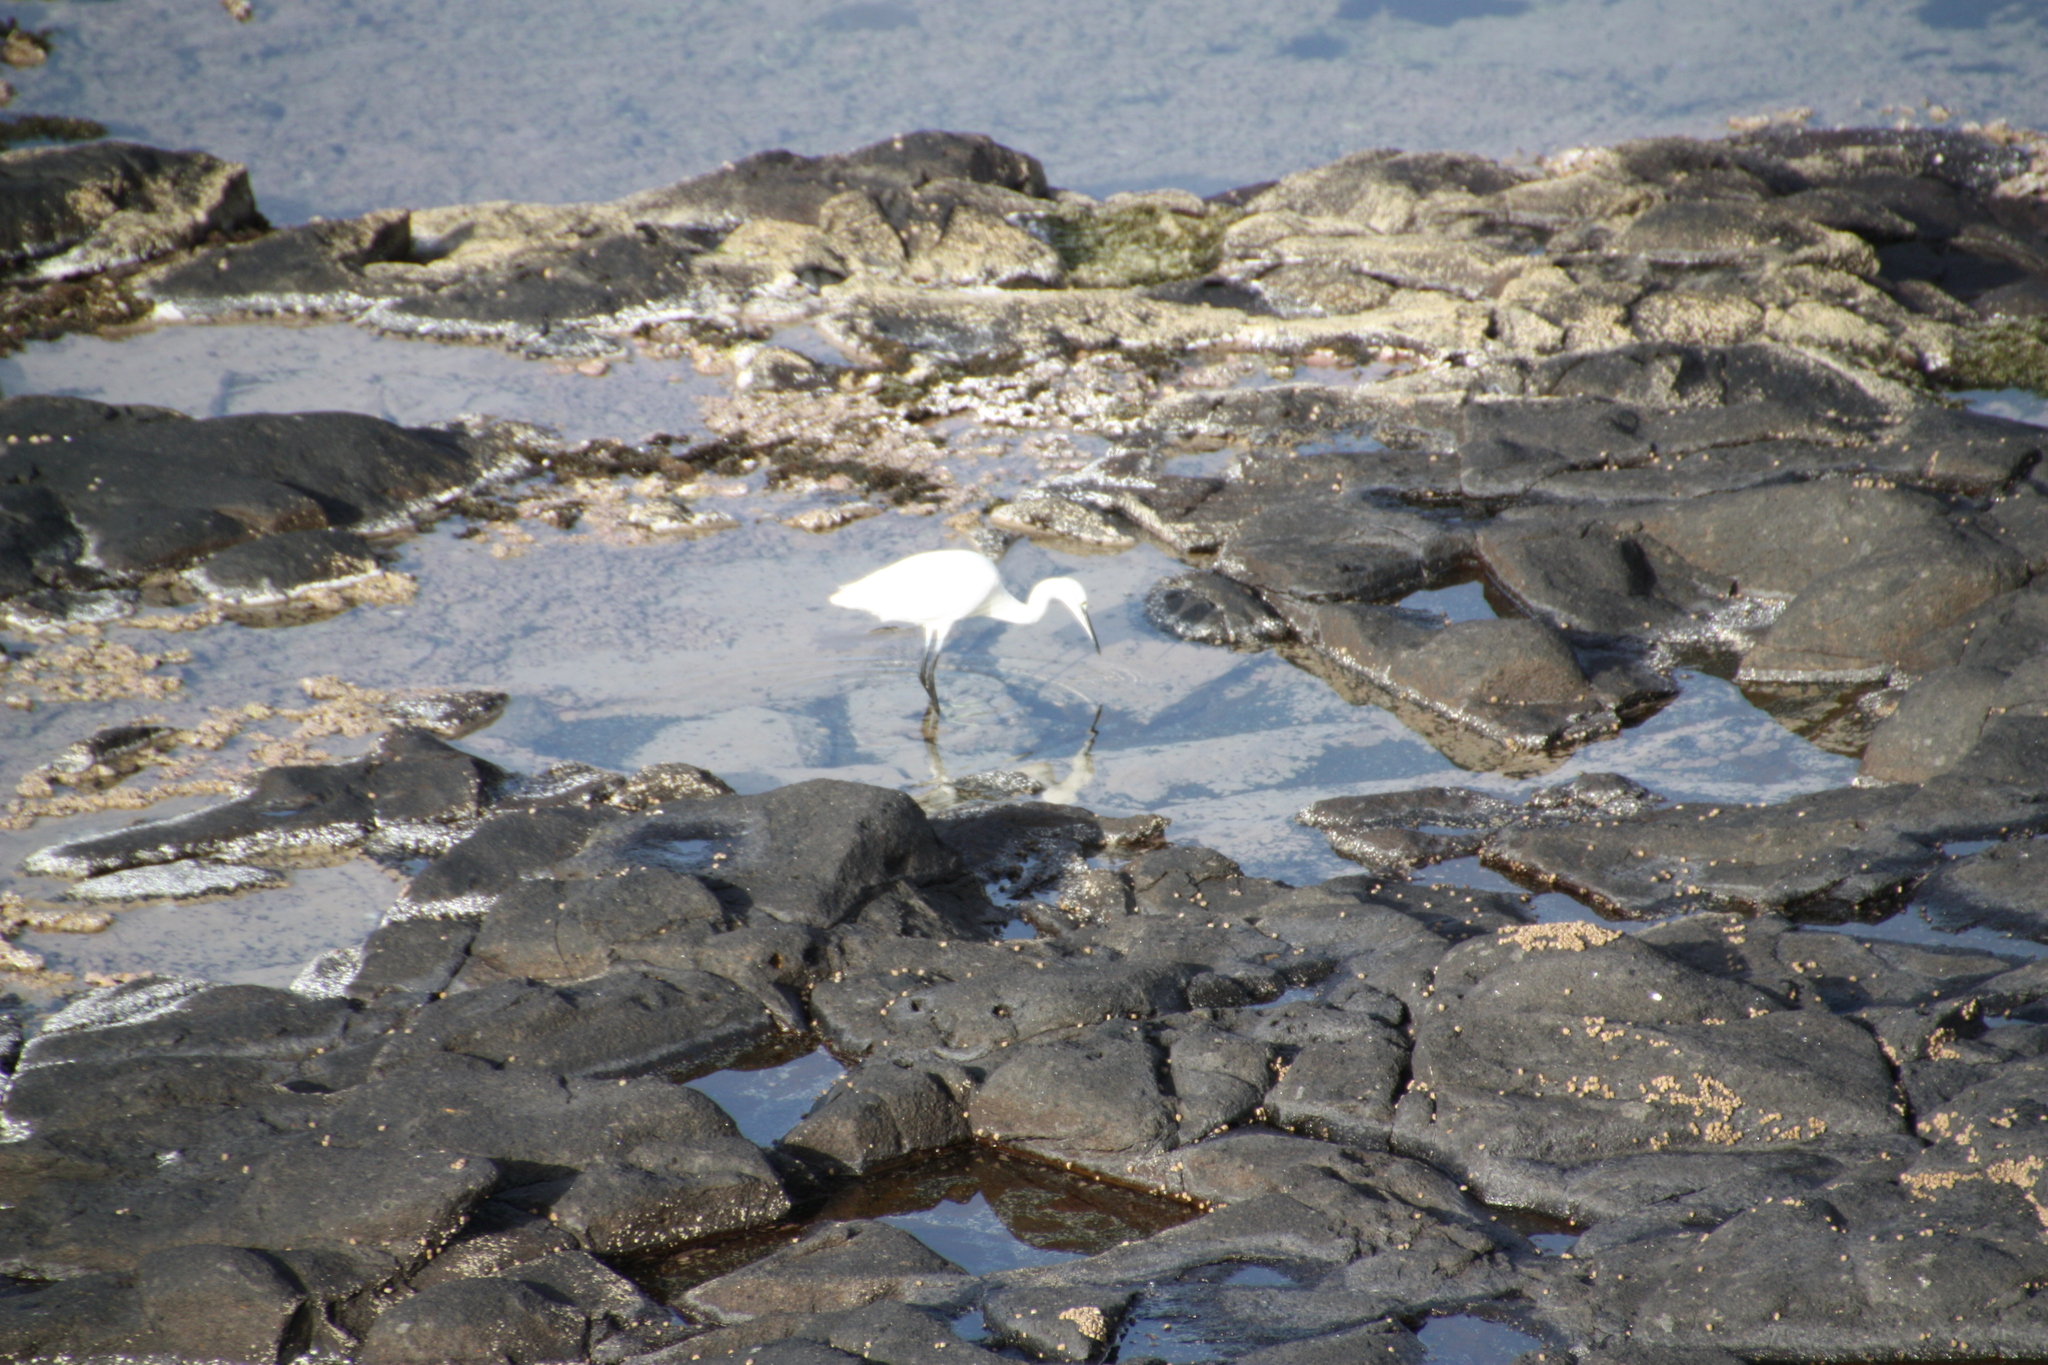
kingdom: Animalia
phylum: Chordata
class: Aves
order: Pelecaniformes
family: Ardeidae
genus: Egretta
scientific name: Egretta garzetta
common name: Little egret
